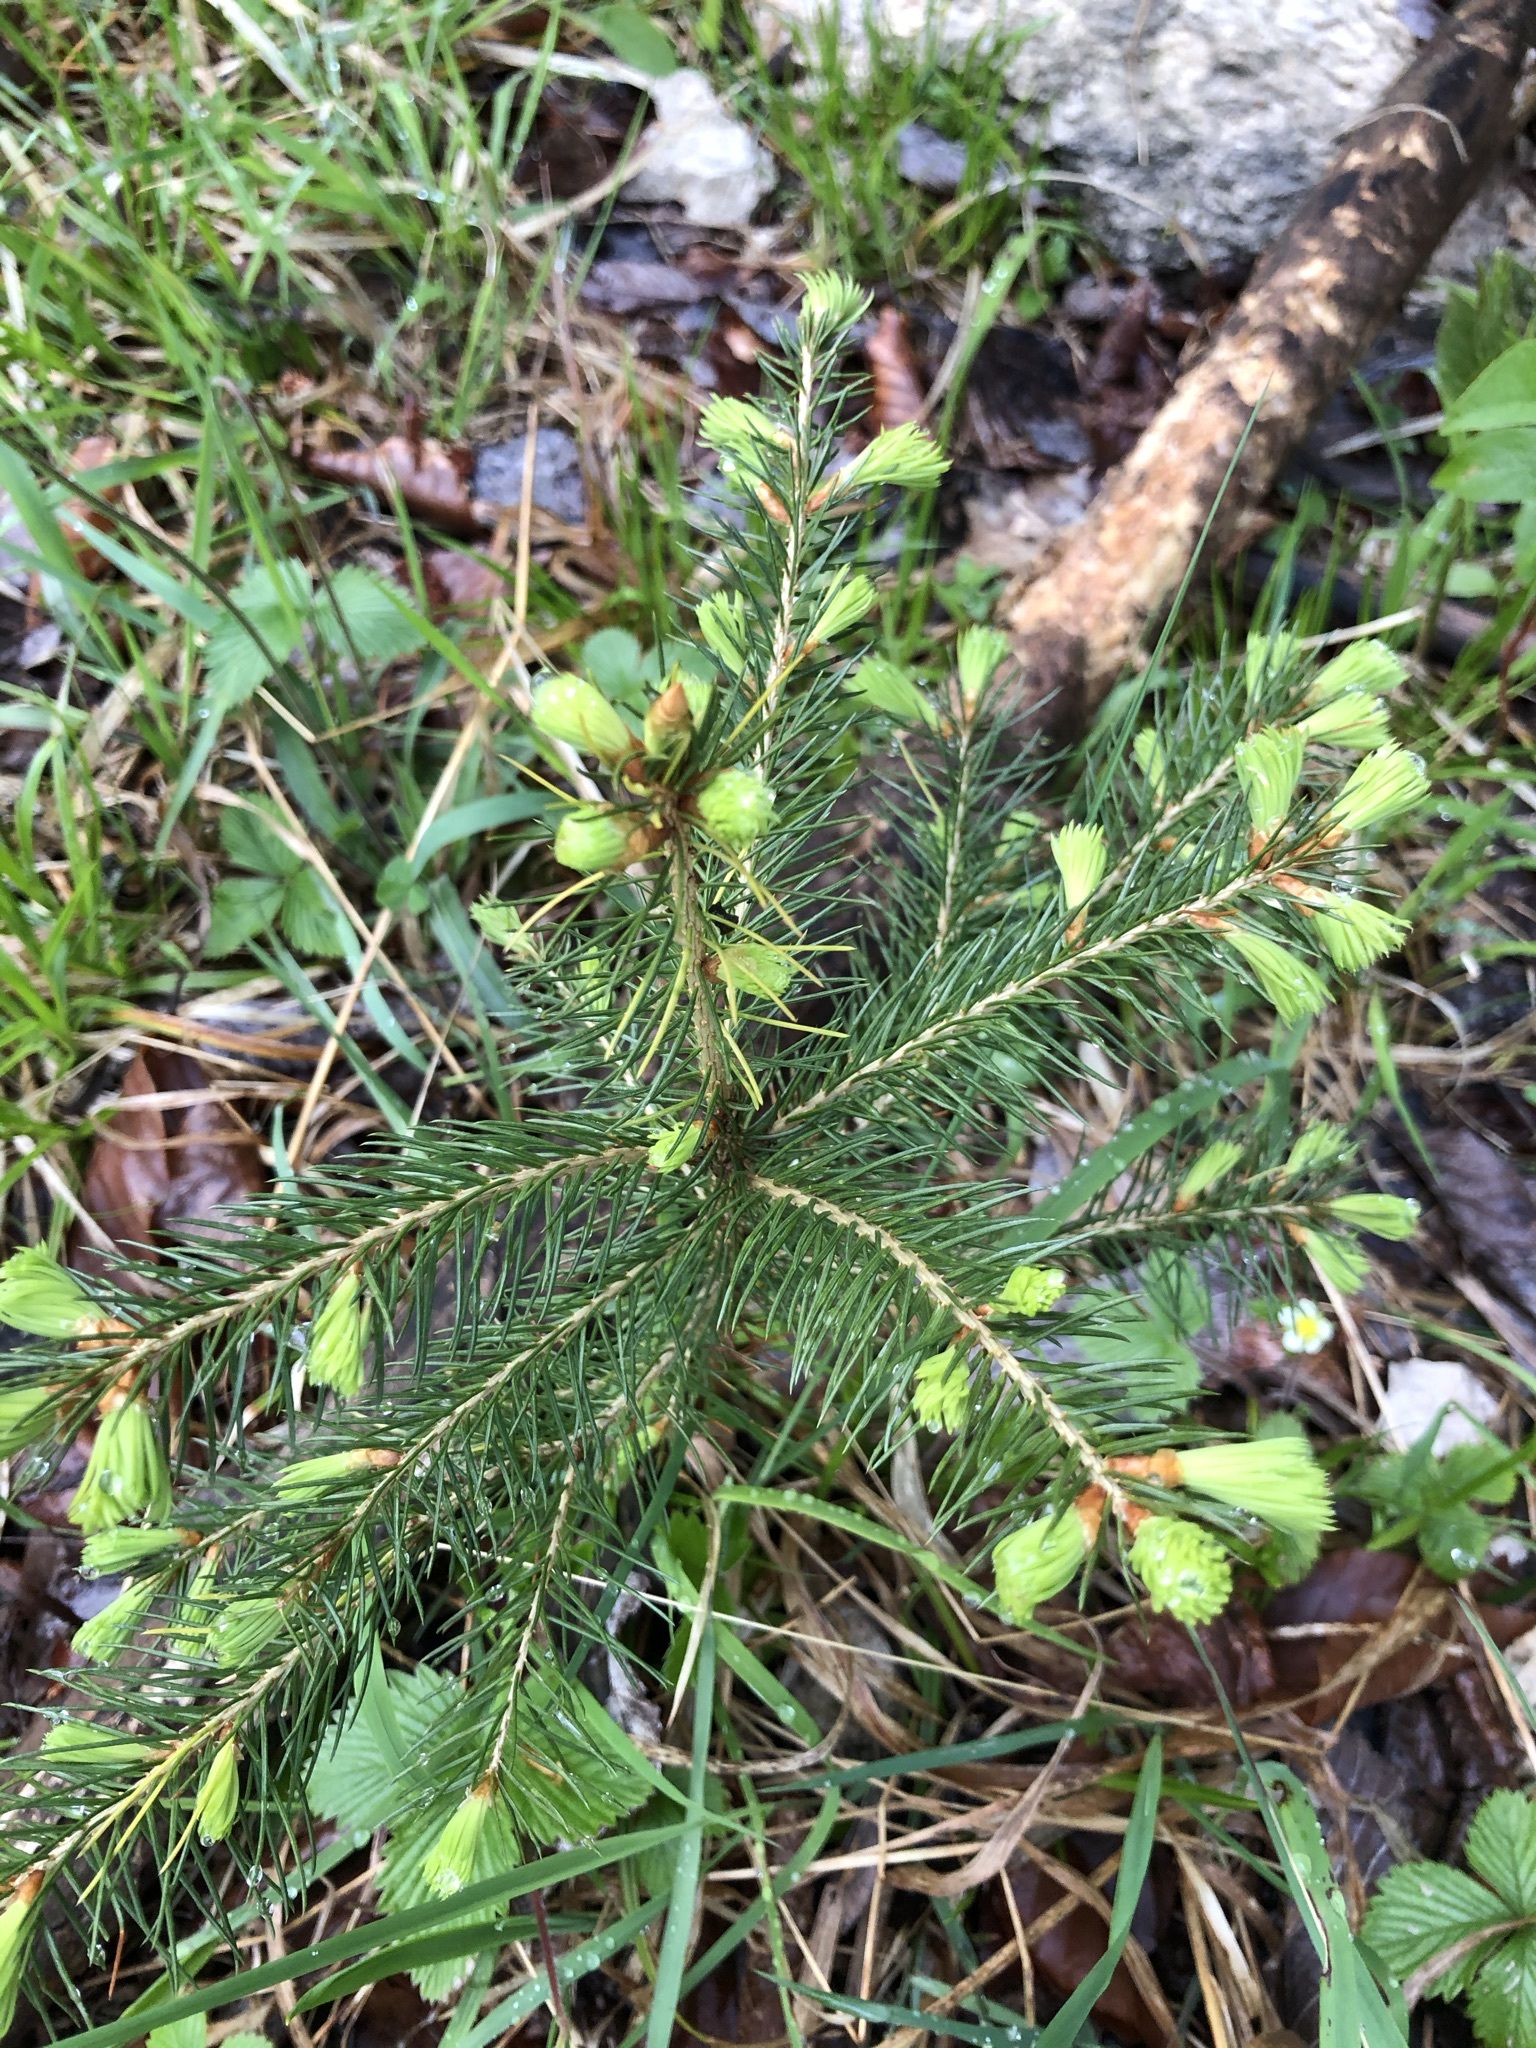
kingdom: Plantae
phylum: Tracheophyta
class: Pinopsida
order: Pinales
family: Pinaceae
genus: Picea
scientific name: Picea abies
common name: Norway spruce
